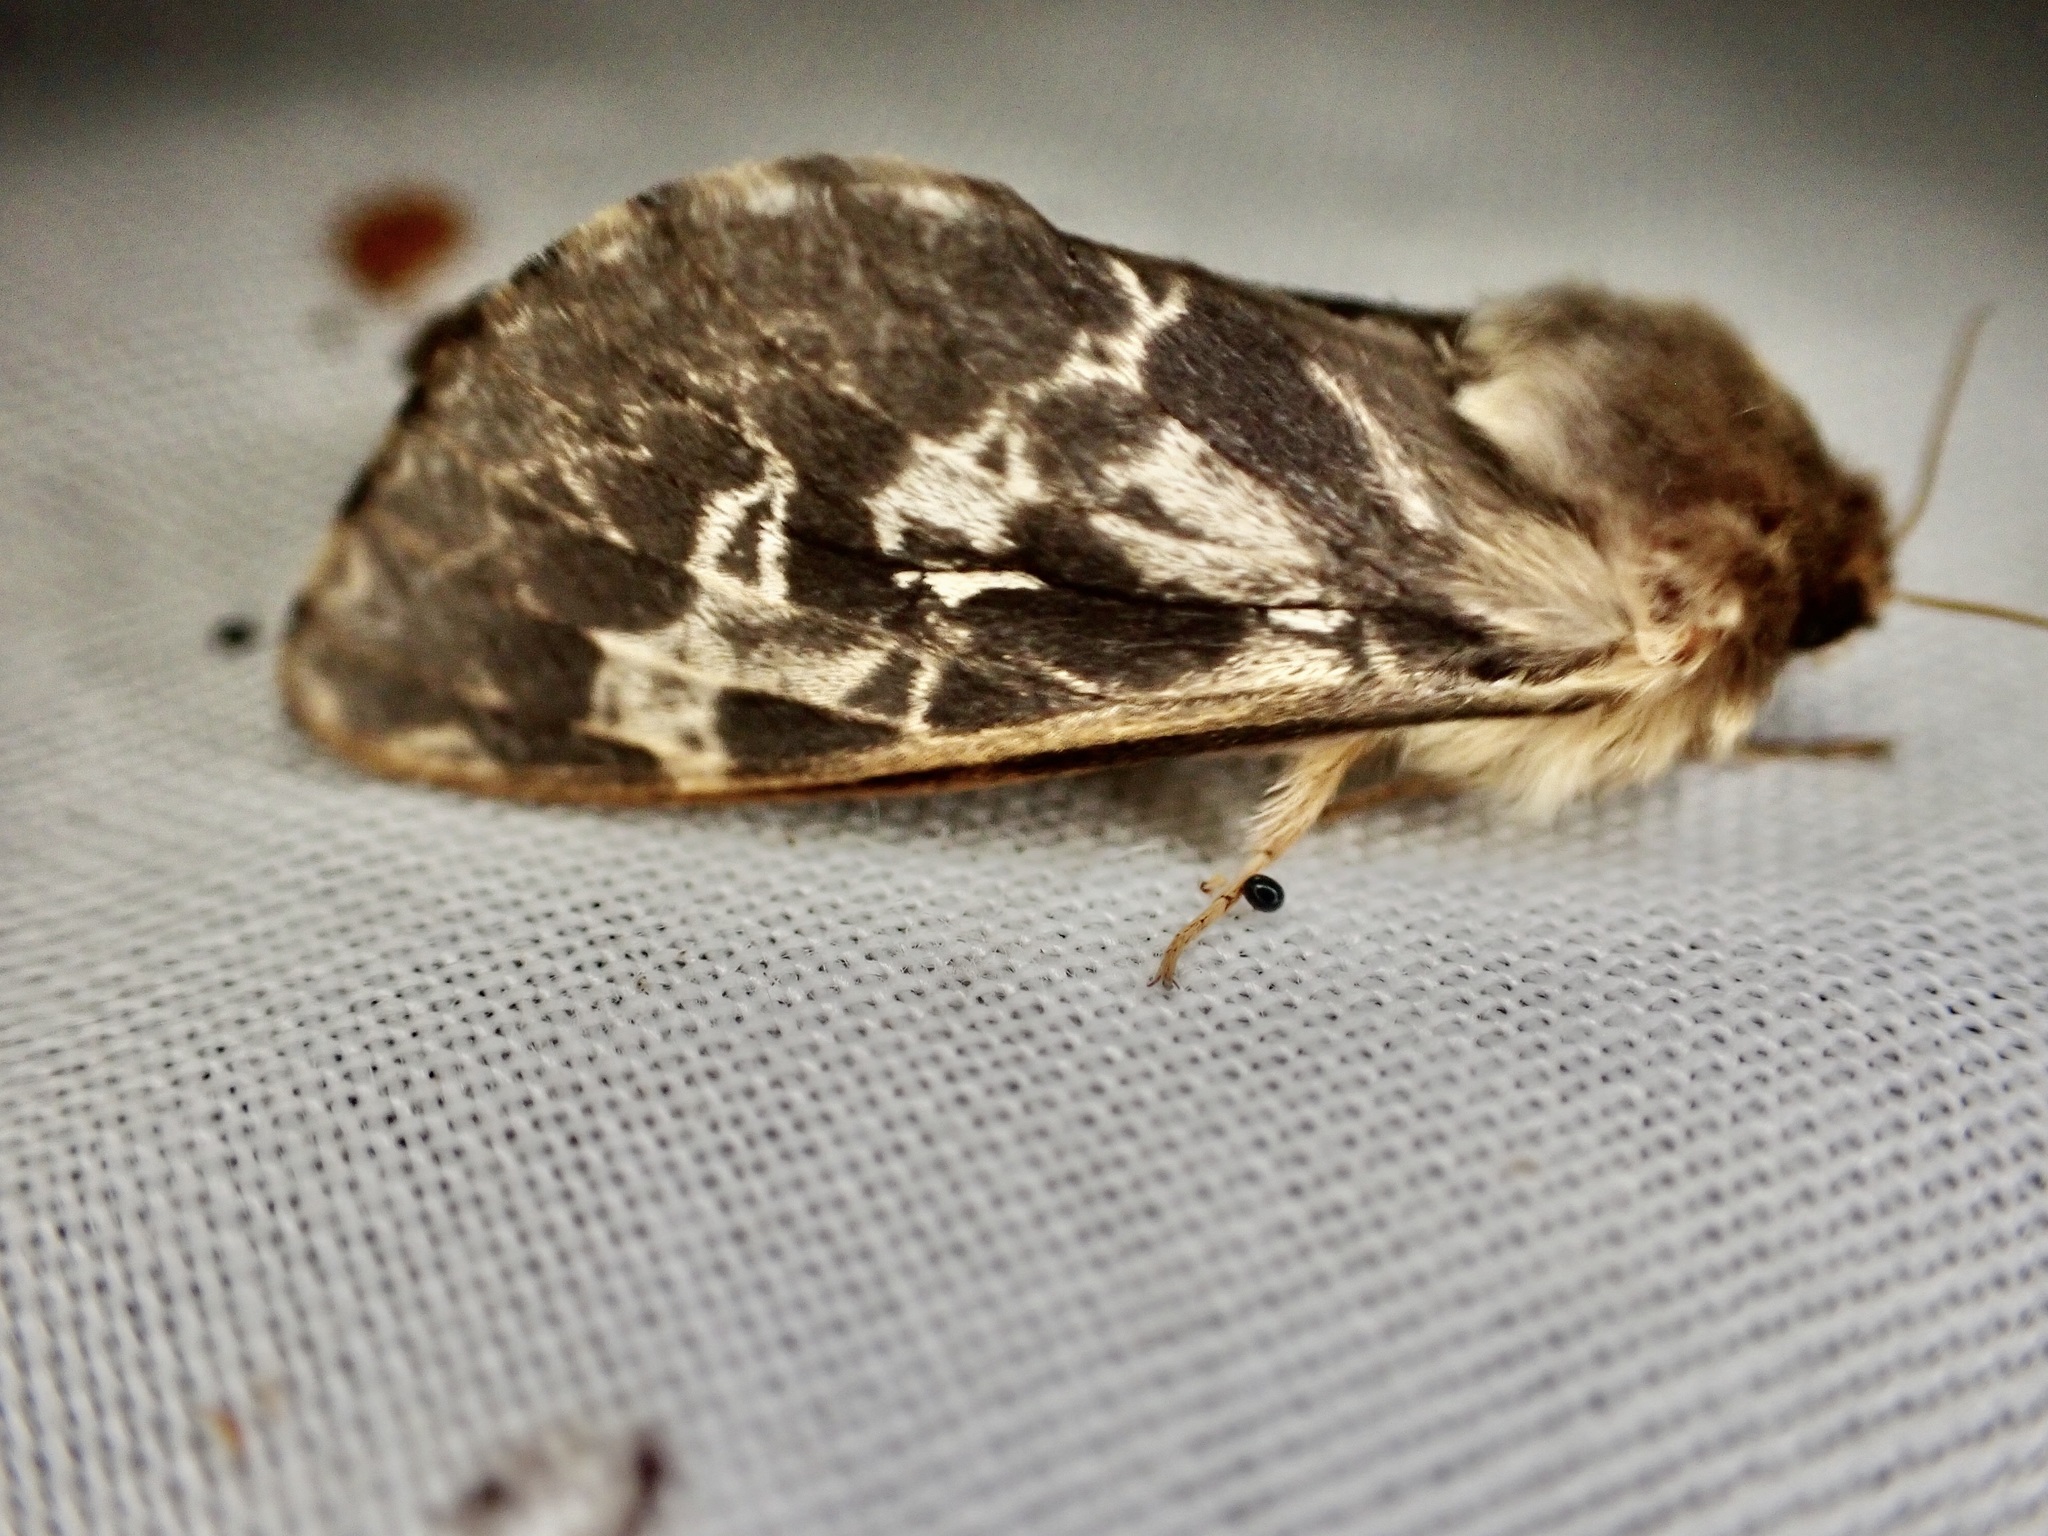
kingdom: Animalia
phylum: Arthropoda
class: Insecta
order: Lepidoptera
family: Hepialidae
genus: Wiseana
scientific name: Wiseana cervinata
